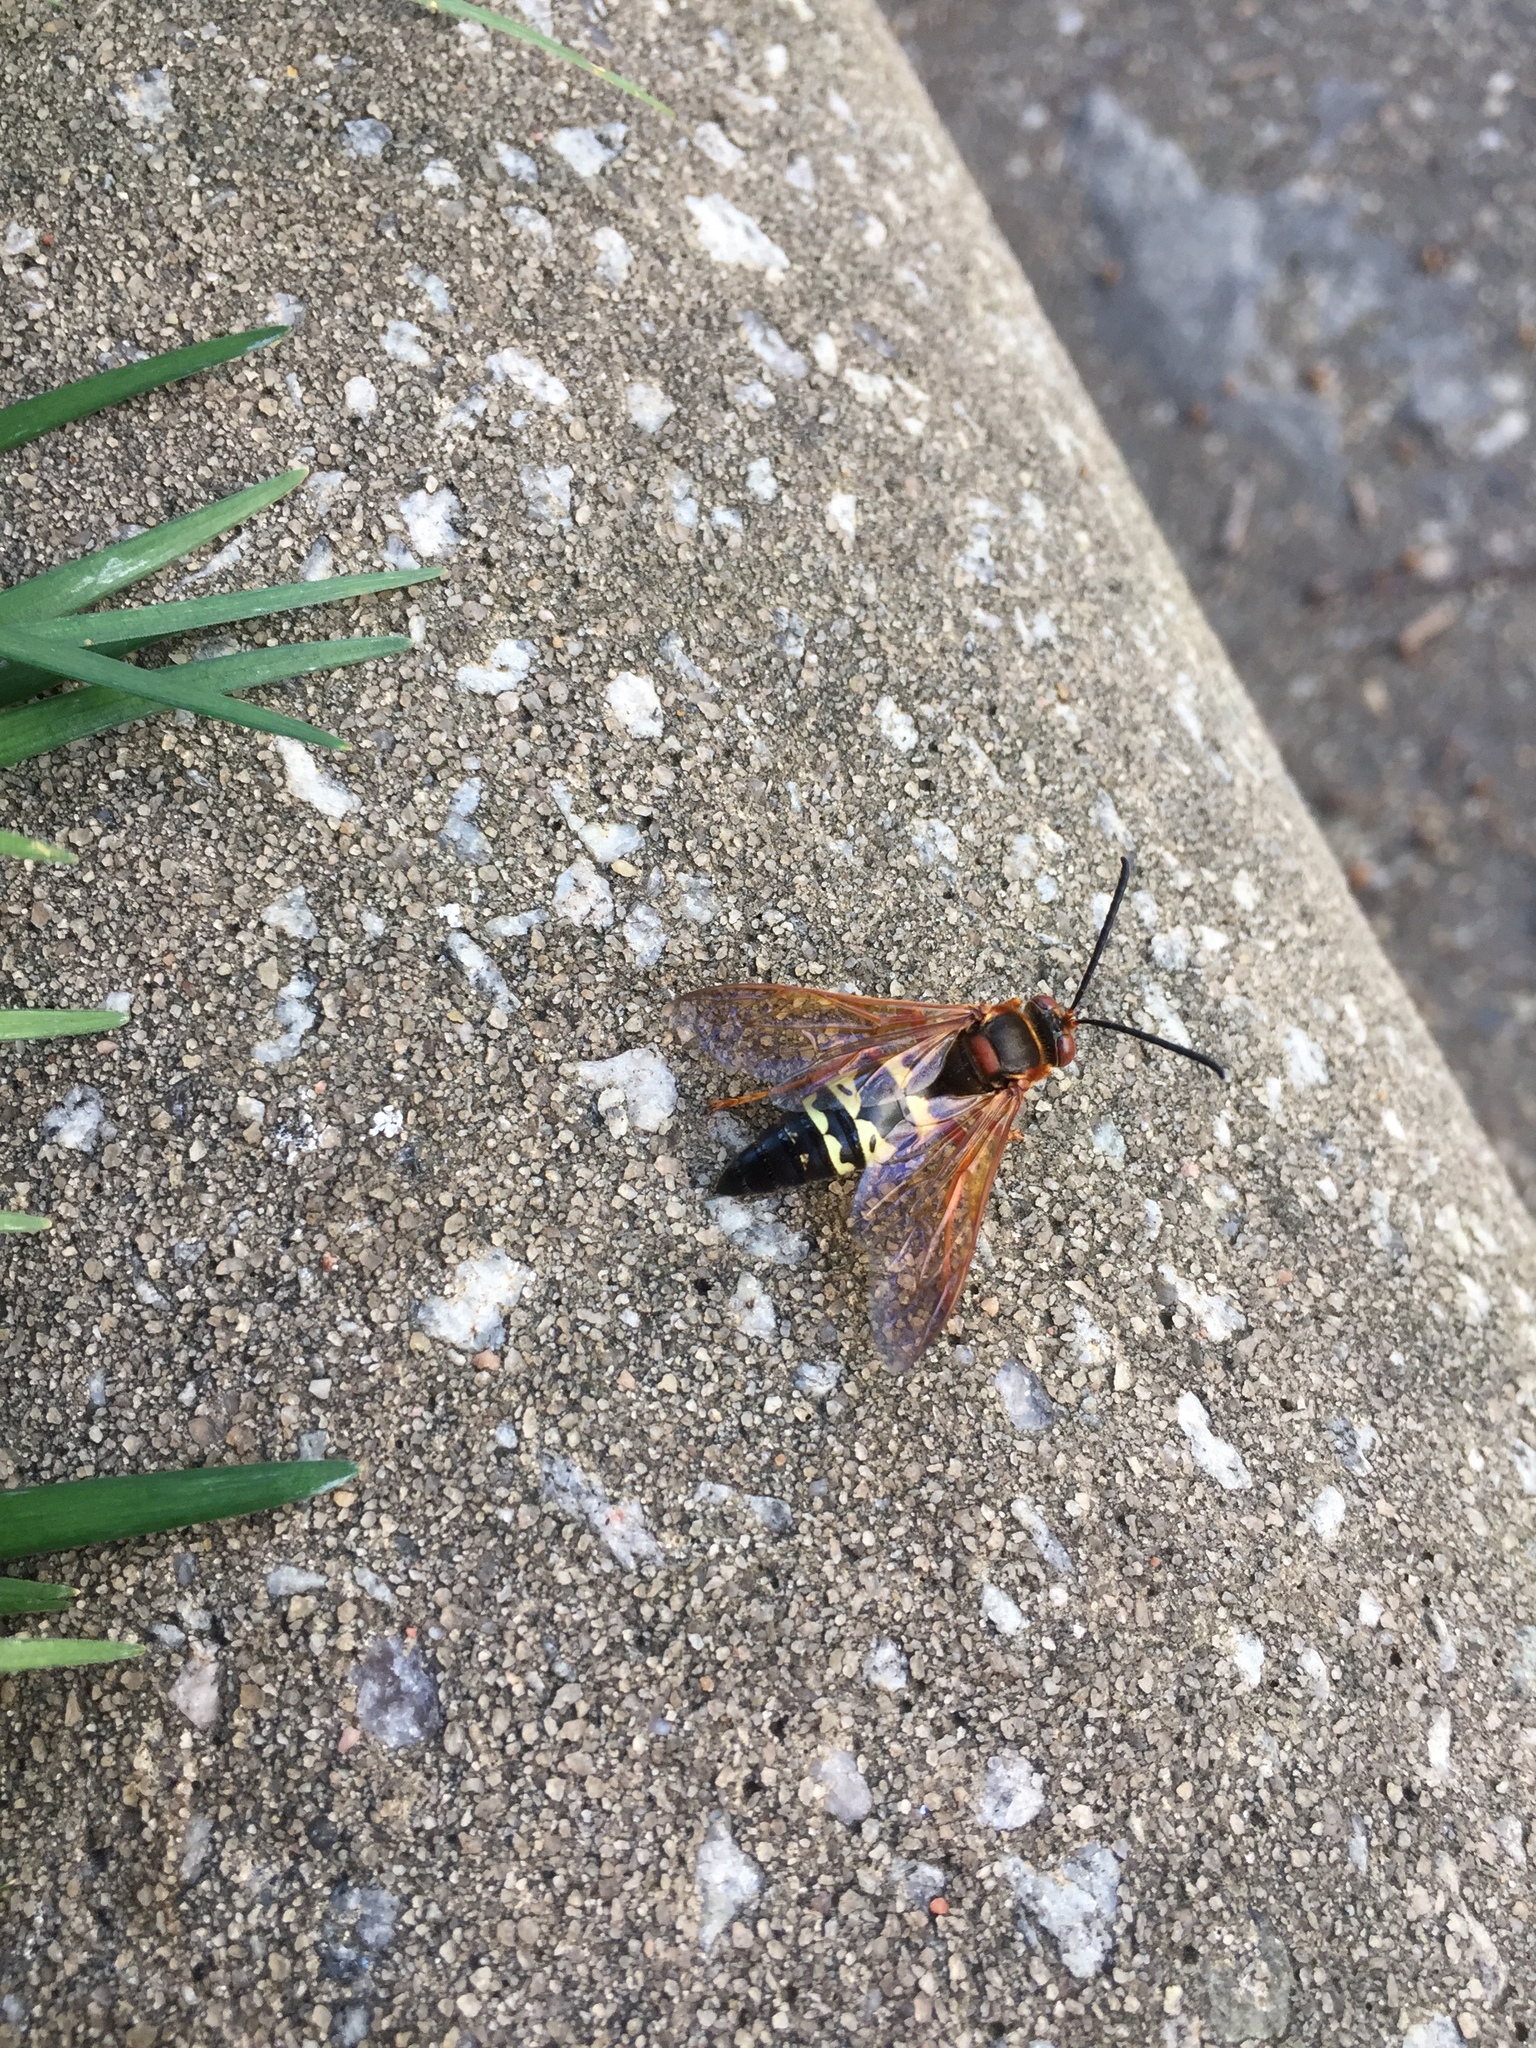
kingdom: Animalia
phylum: Arthropoda
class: Insecta
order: Hymenoptera
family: Crabronidae
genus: Sphecius
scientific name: Sphecius speciosus
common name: Cicada killer
